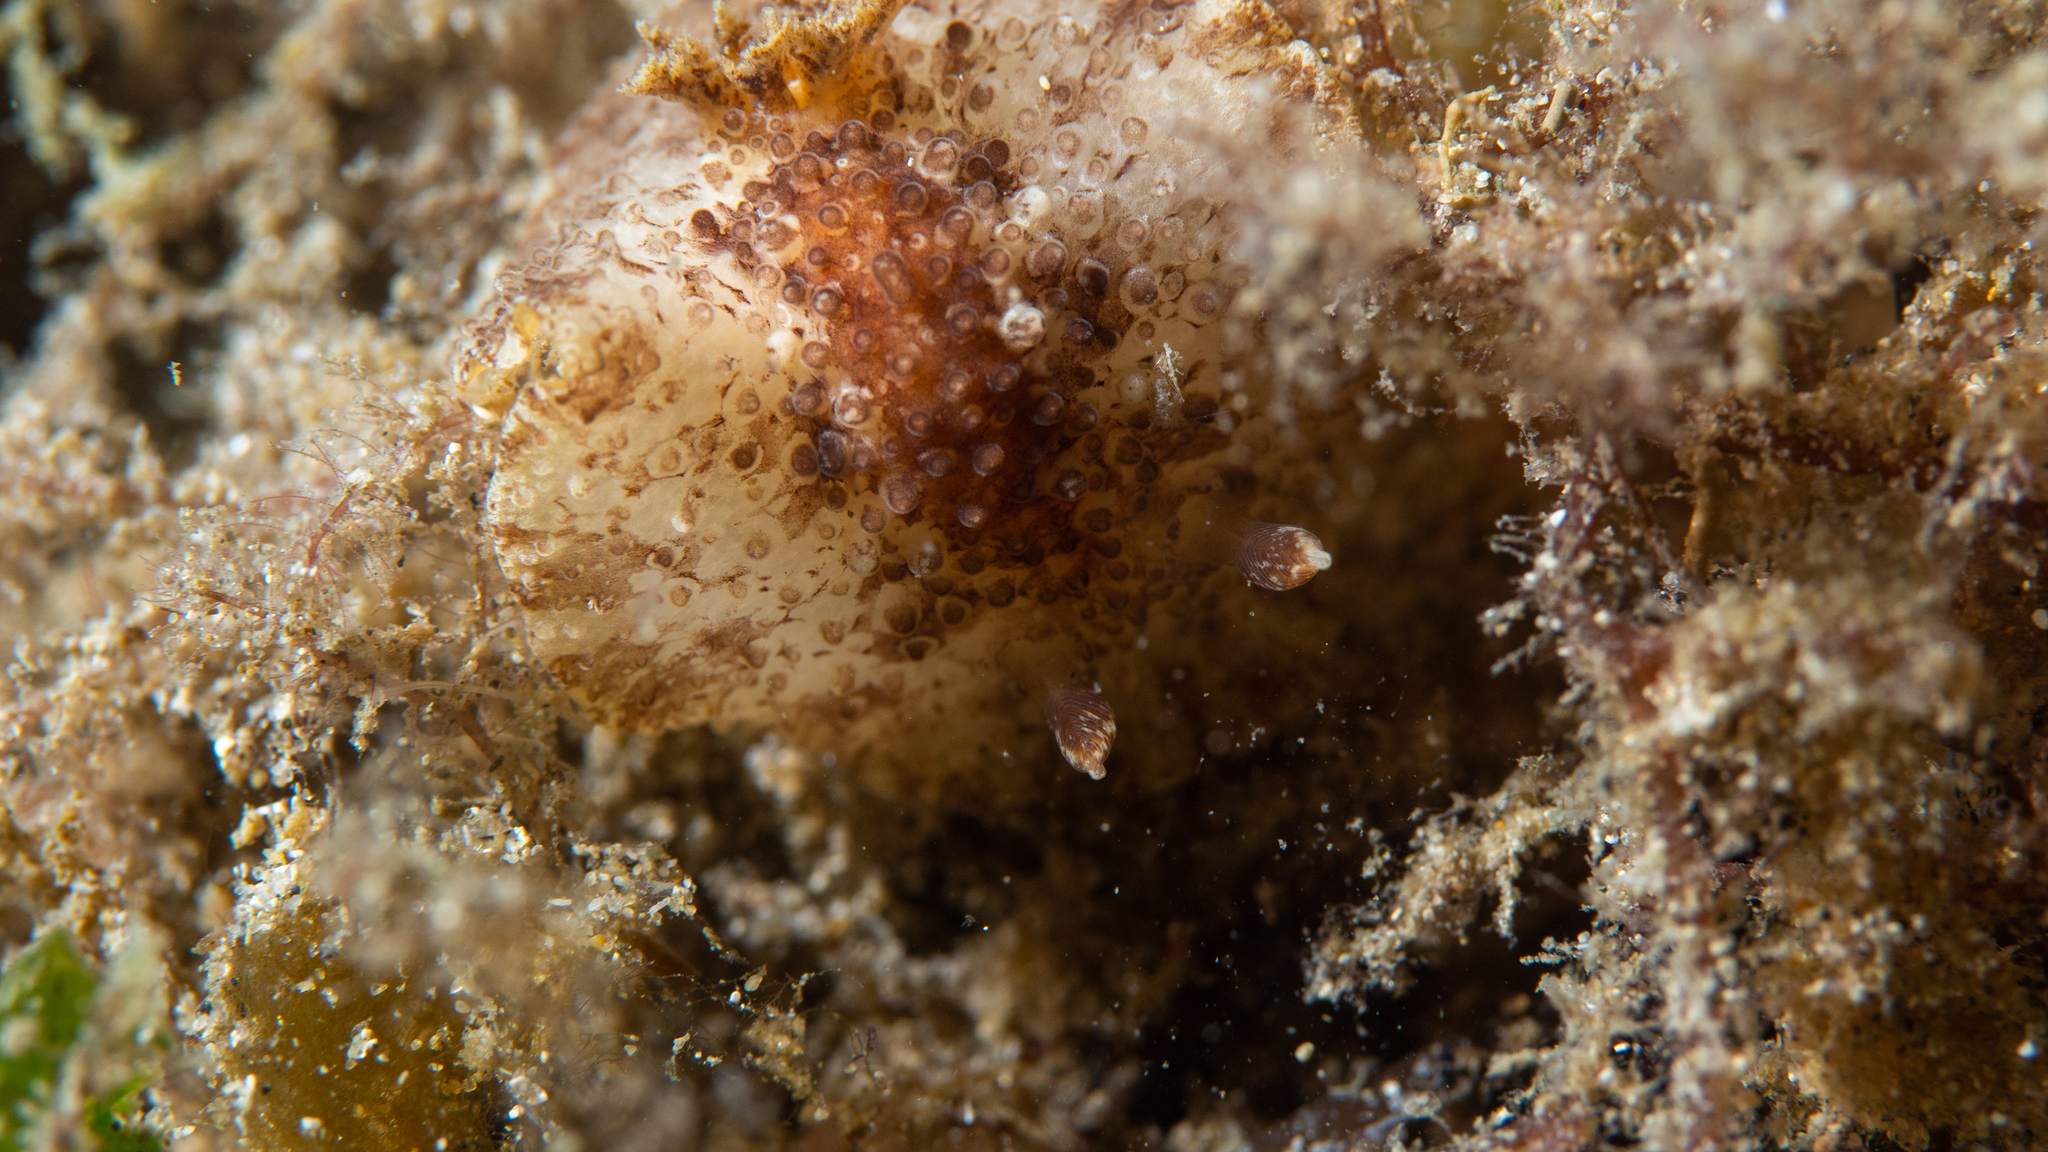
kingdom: Animalia
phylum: Mollusca
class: Gastropoda
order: Nudibranchia
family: Discodorididae
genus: Carminodoris
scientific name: Carminodoris nodulosa
